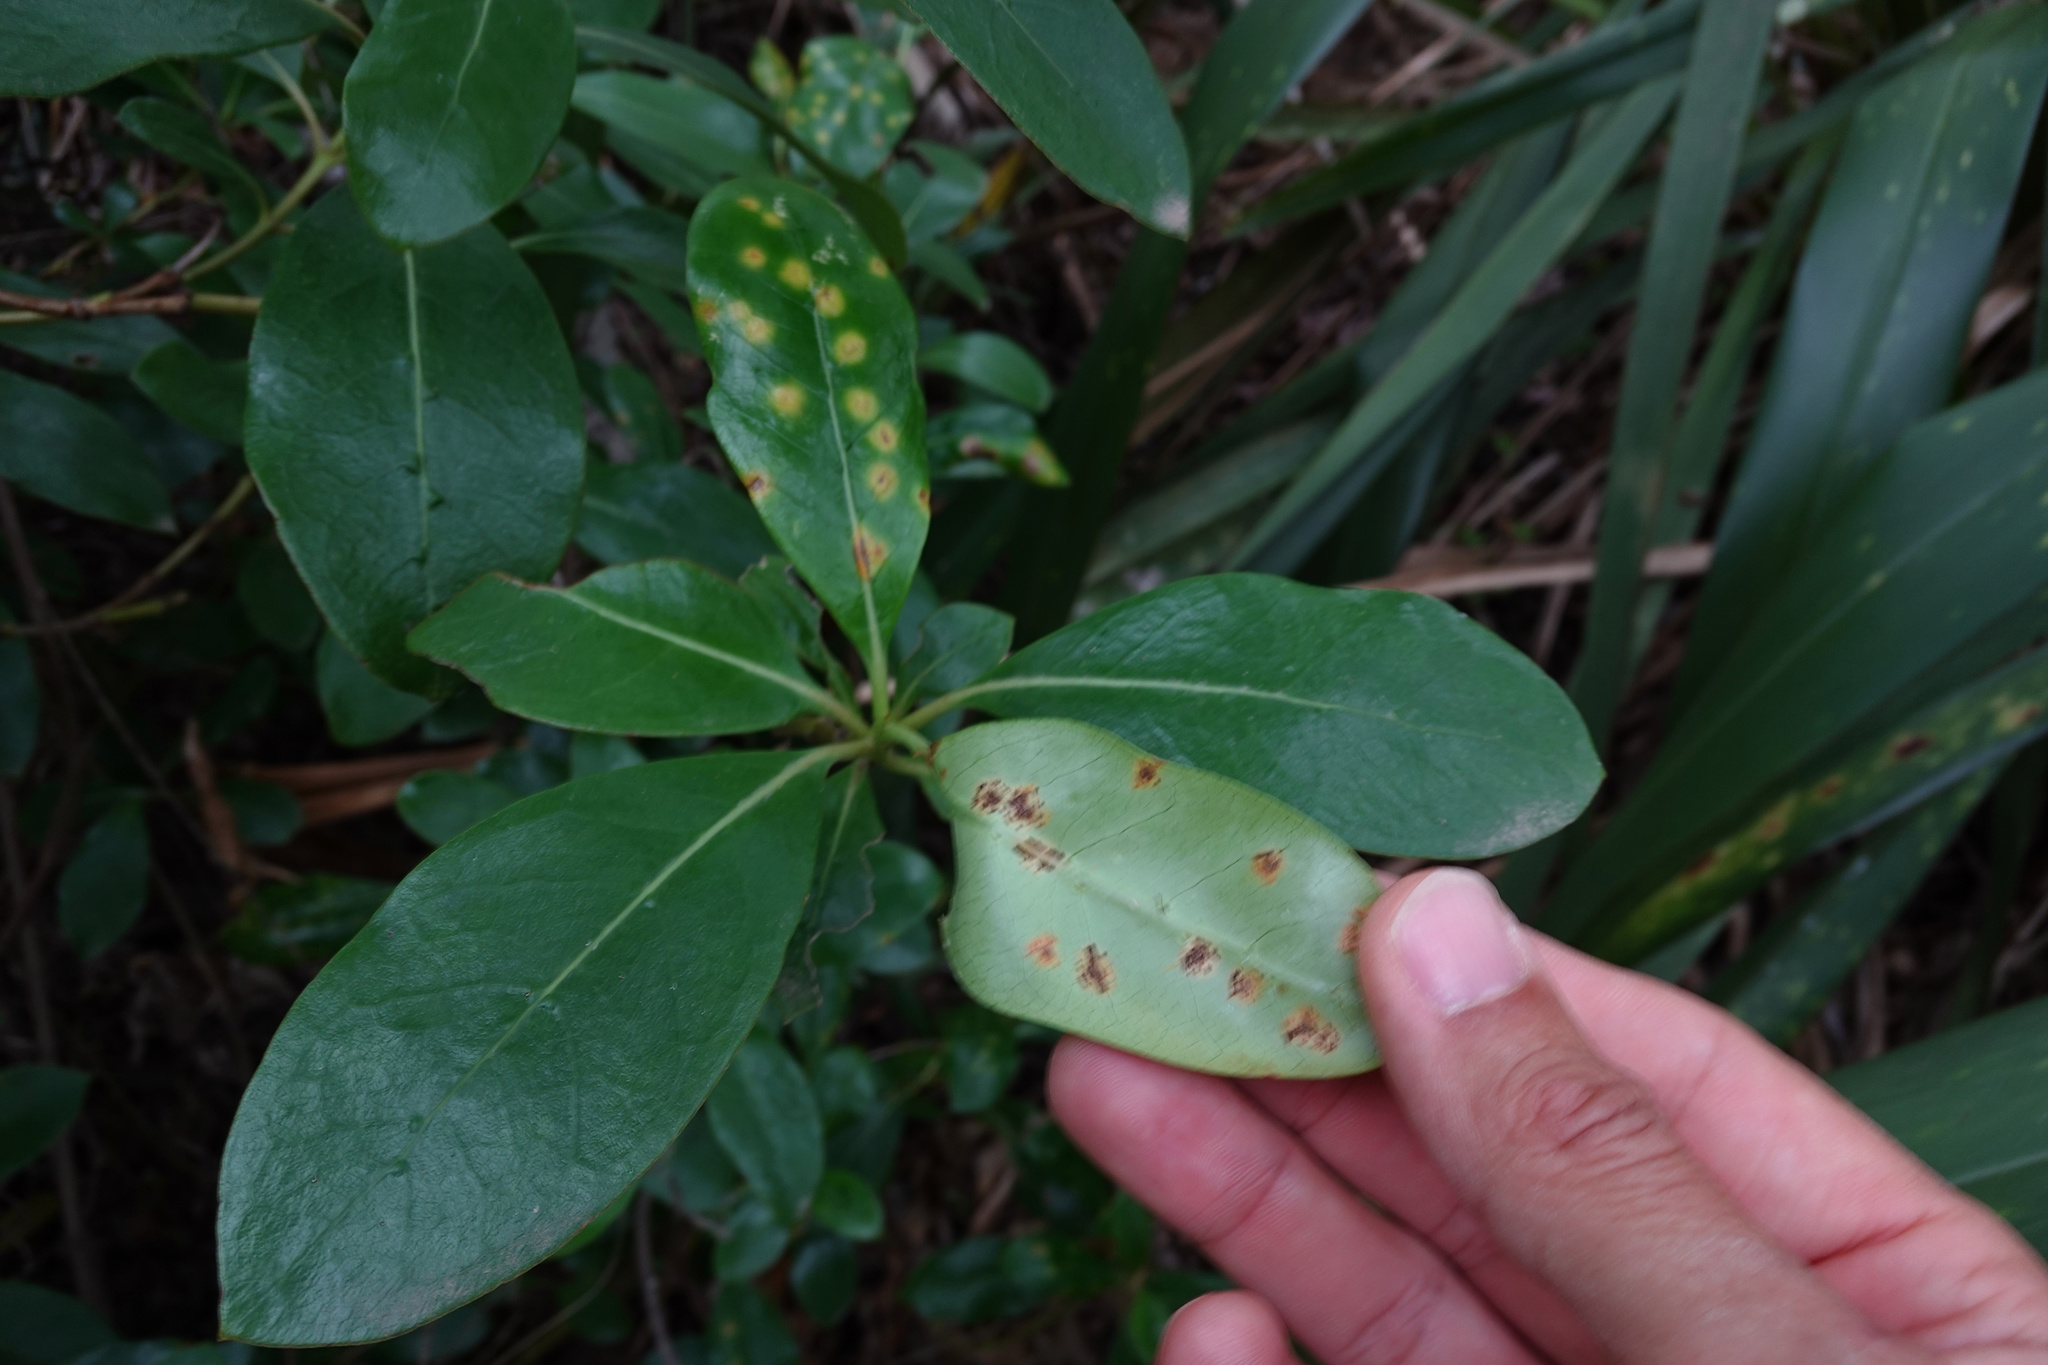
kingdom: Fungi
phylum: Basidiomycota
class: Pucciniomycetes
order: Pucciniales
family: Pucciniaceae
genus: Puccinia
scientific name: Puccinia coprosmae
